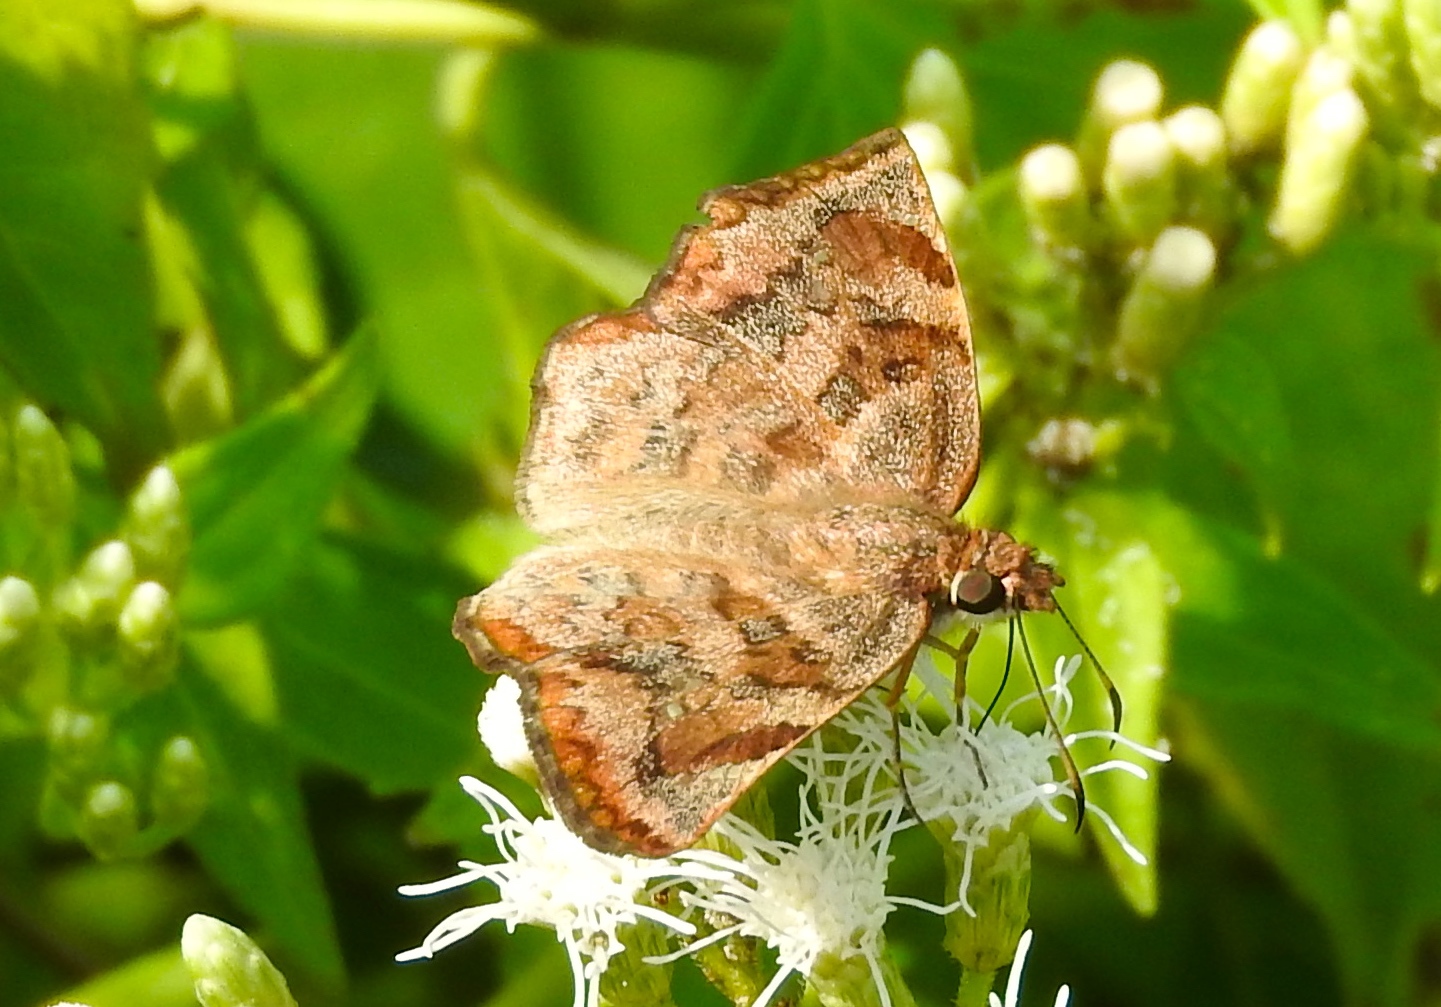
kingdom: Animalia
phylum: Arthropoda
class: Insecta
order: Lepidoptera
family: Hesperiidae
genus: Antigonus
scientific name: Antigonus erosus
